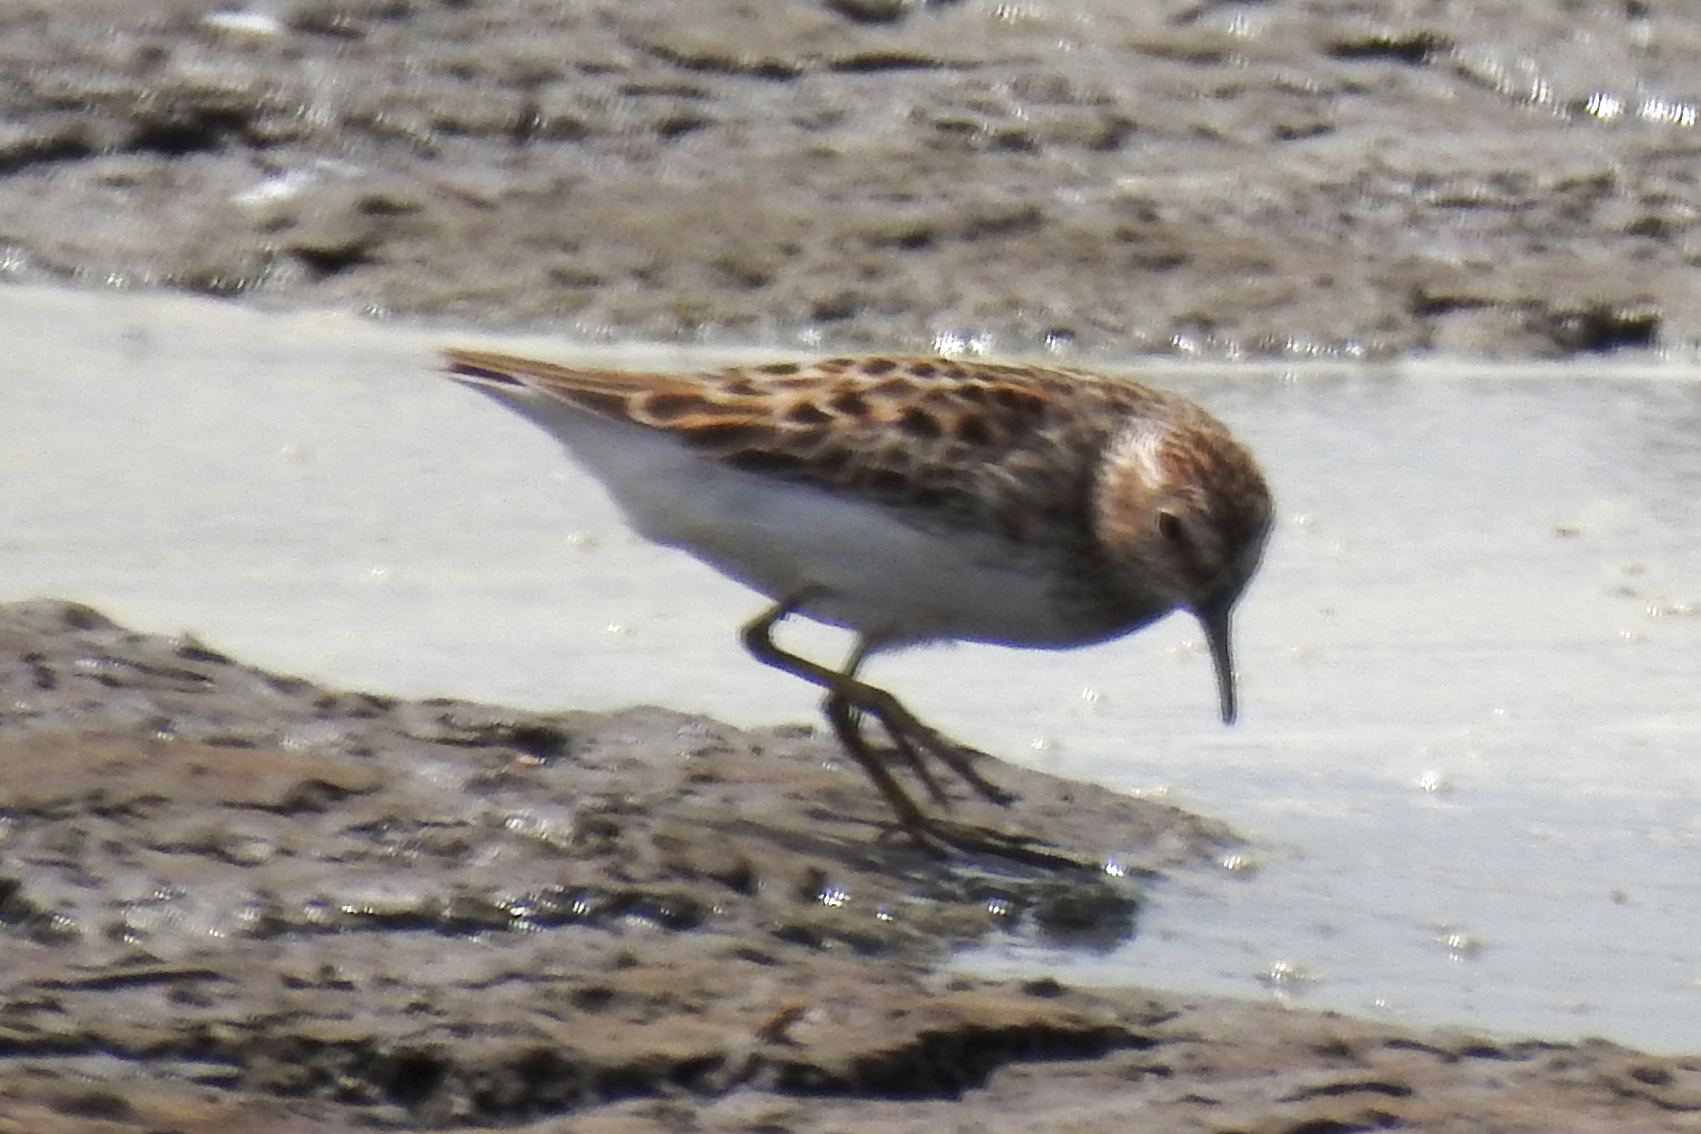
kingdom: Animalia
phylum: Chordata
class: Aves
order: Charadriiformes
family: Scolopacidae
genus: Calidris
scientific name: Calidris minutilla
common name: Least sandpiper
